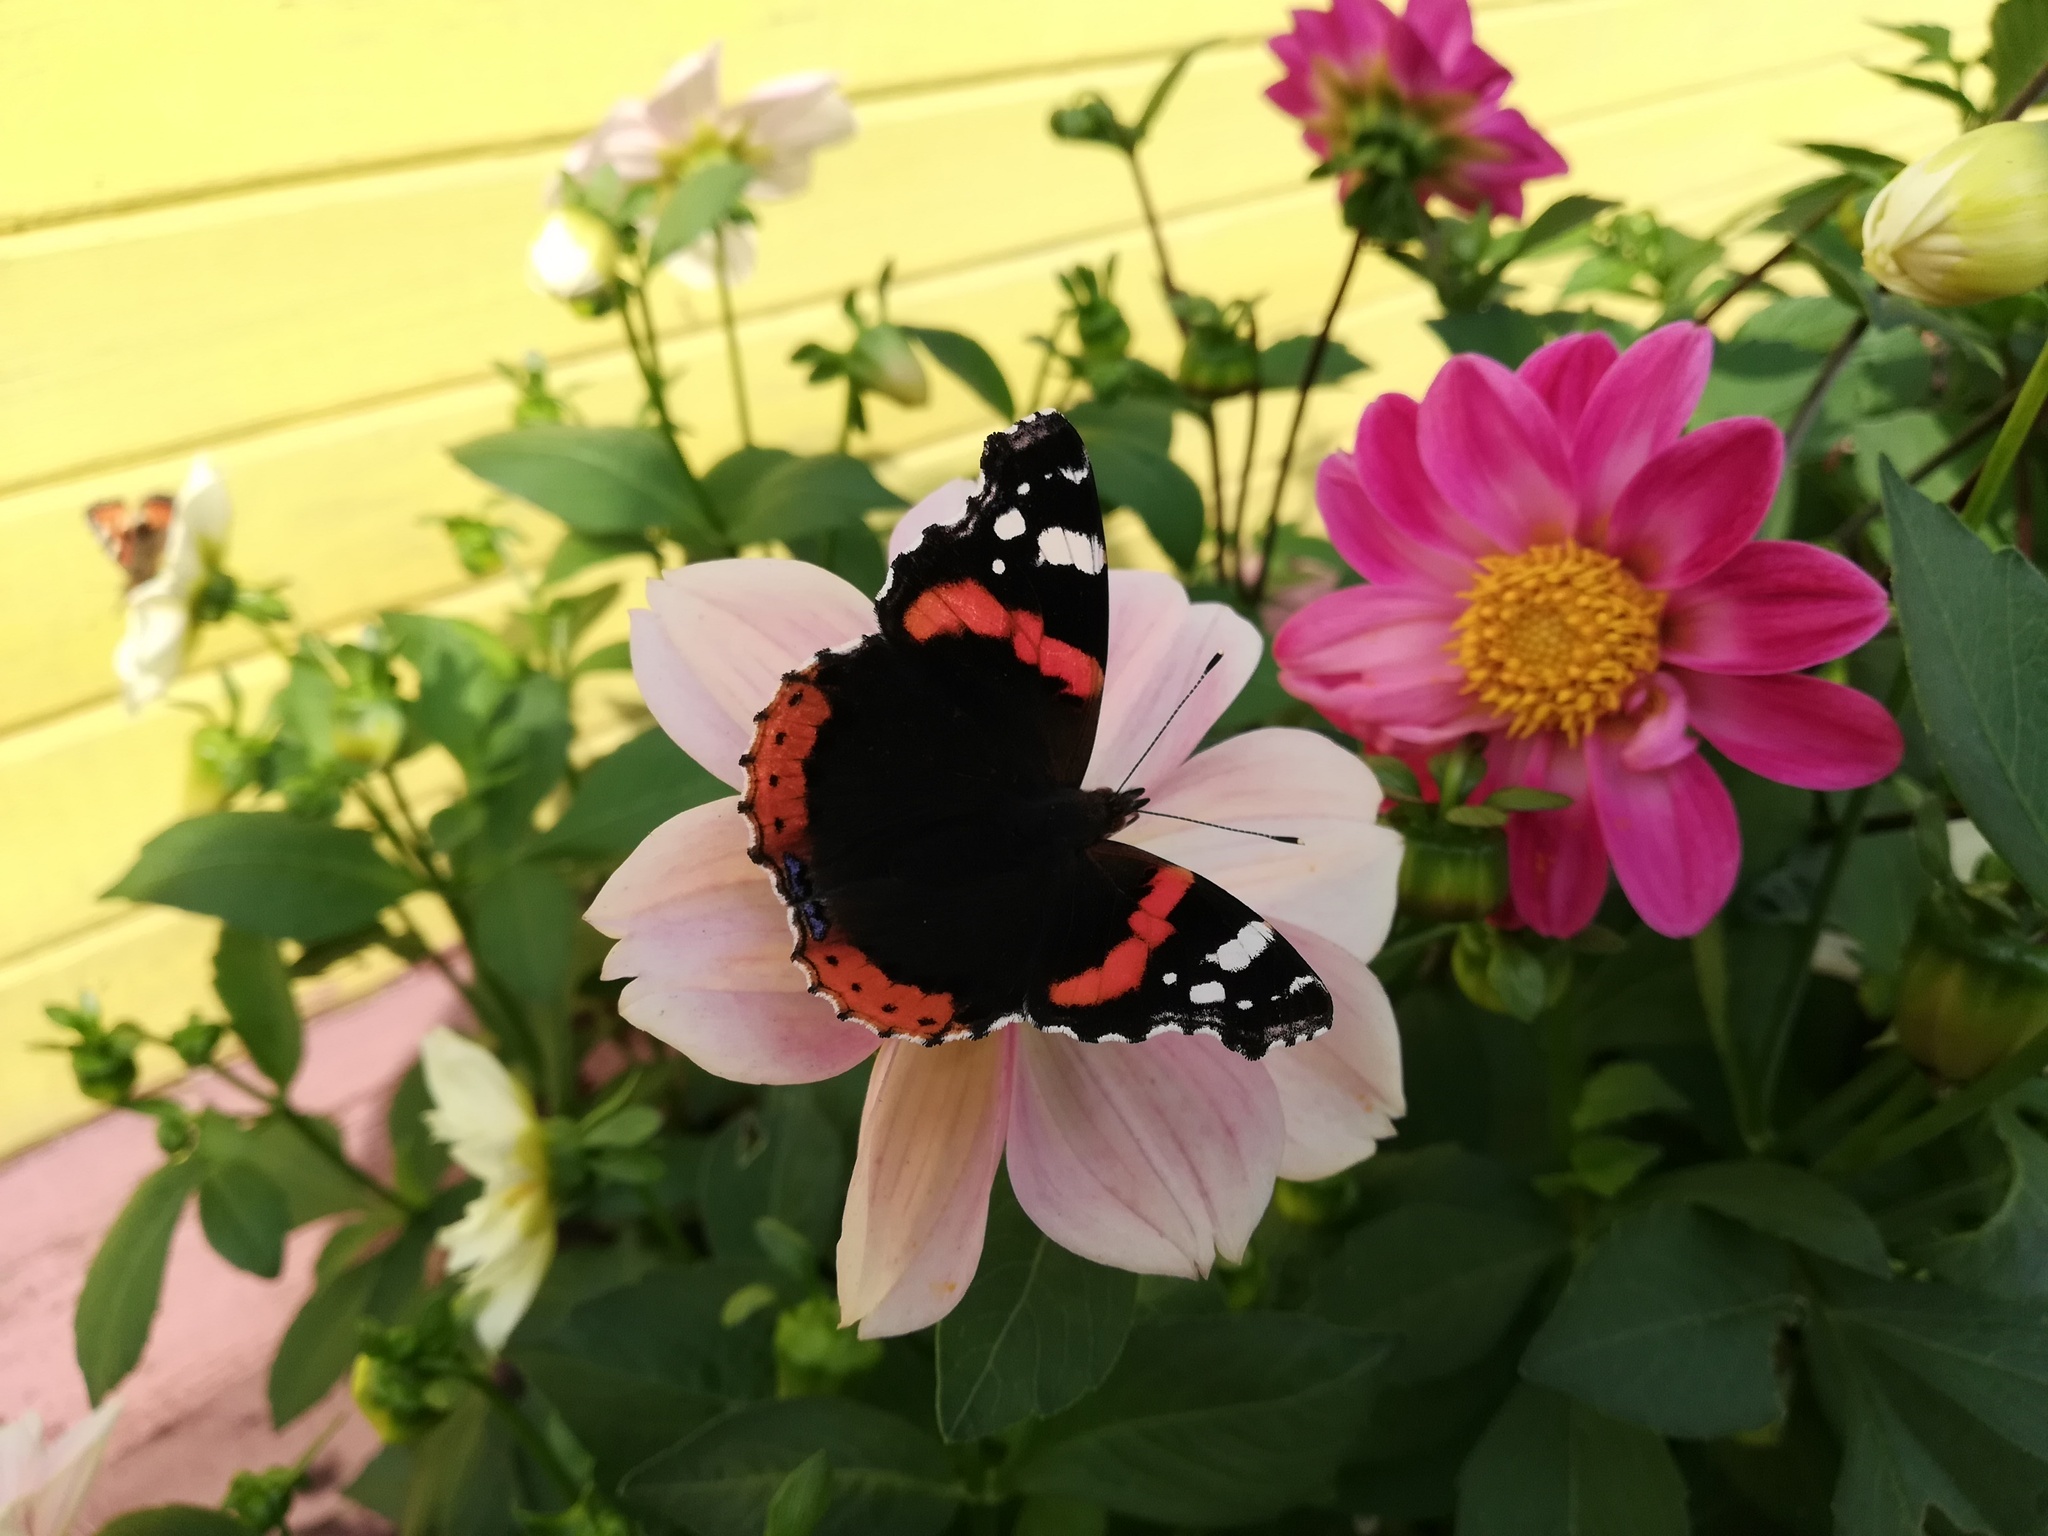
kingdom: Animalia
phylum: Arthropoda
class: Insecta
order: Lepidoptera
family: Nymphalidae
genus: Vanessa
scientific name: Vanessa atalanta
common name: Red admiral
